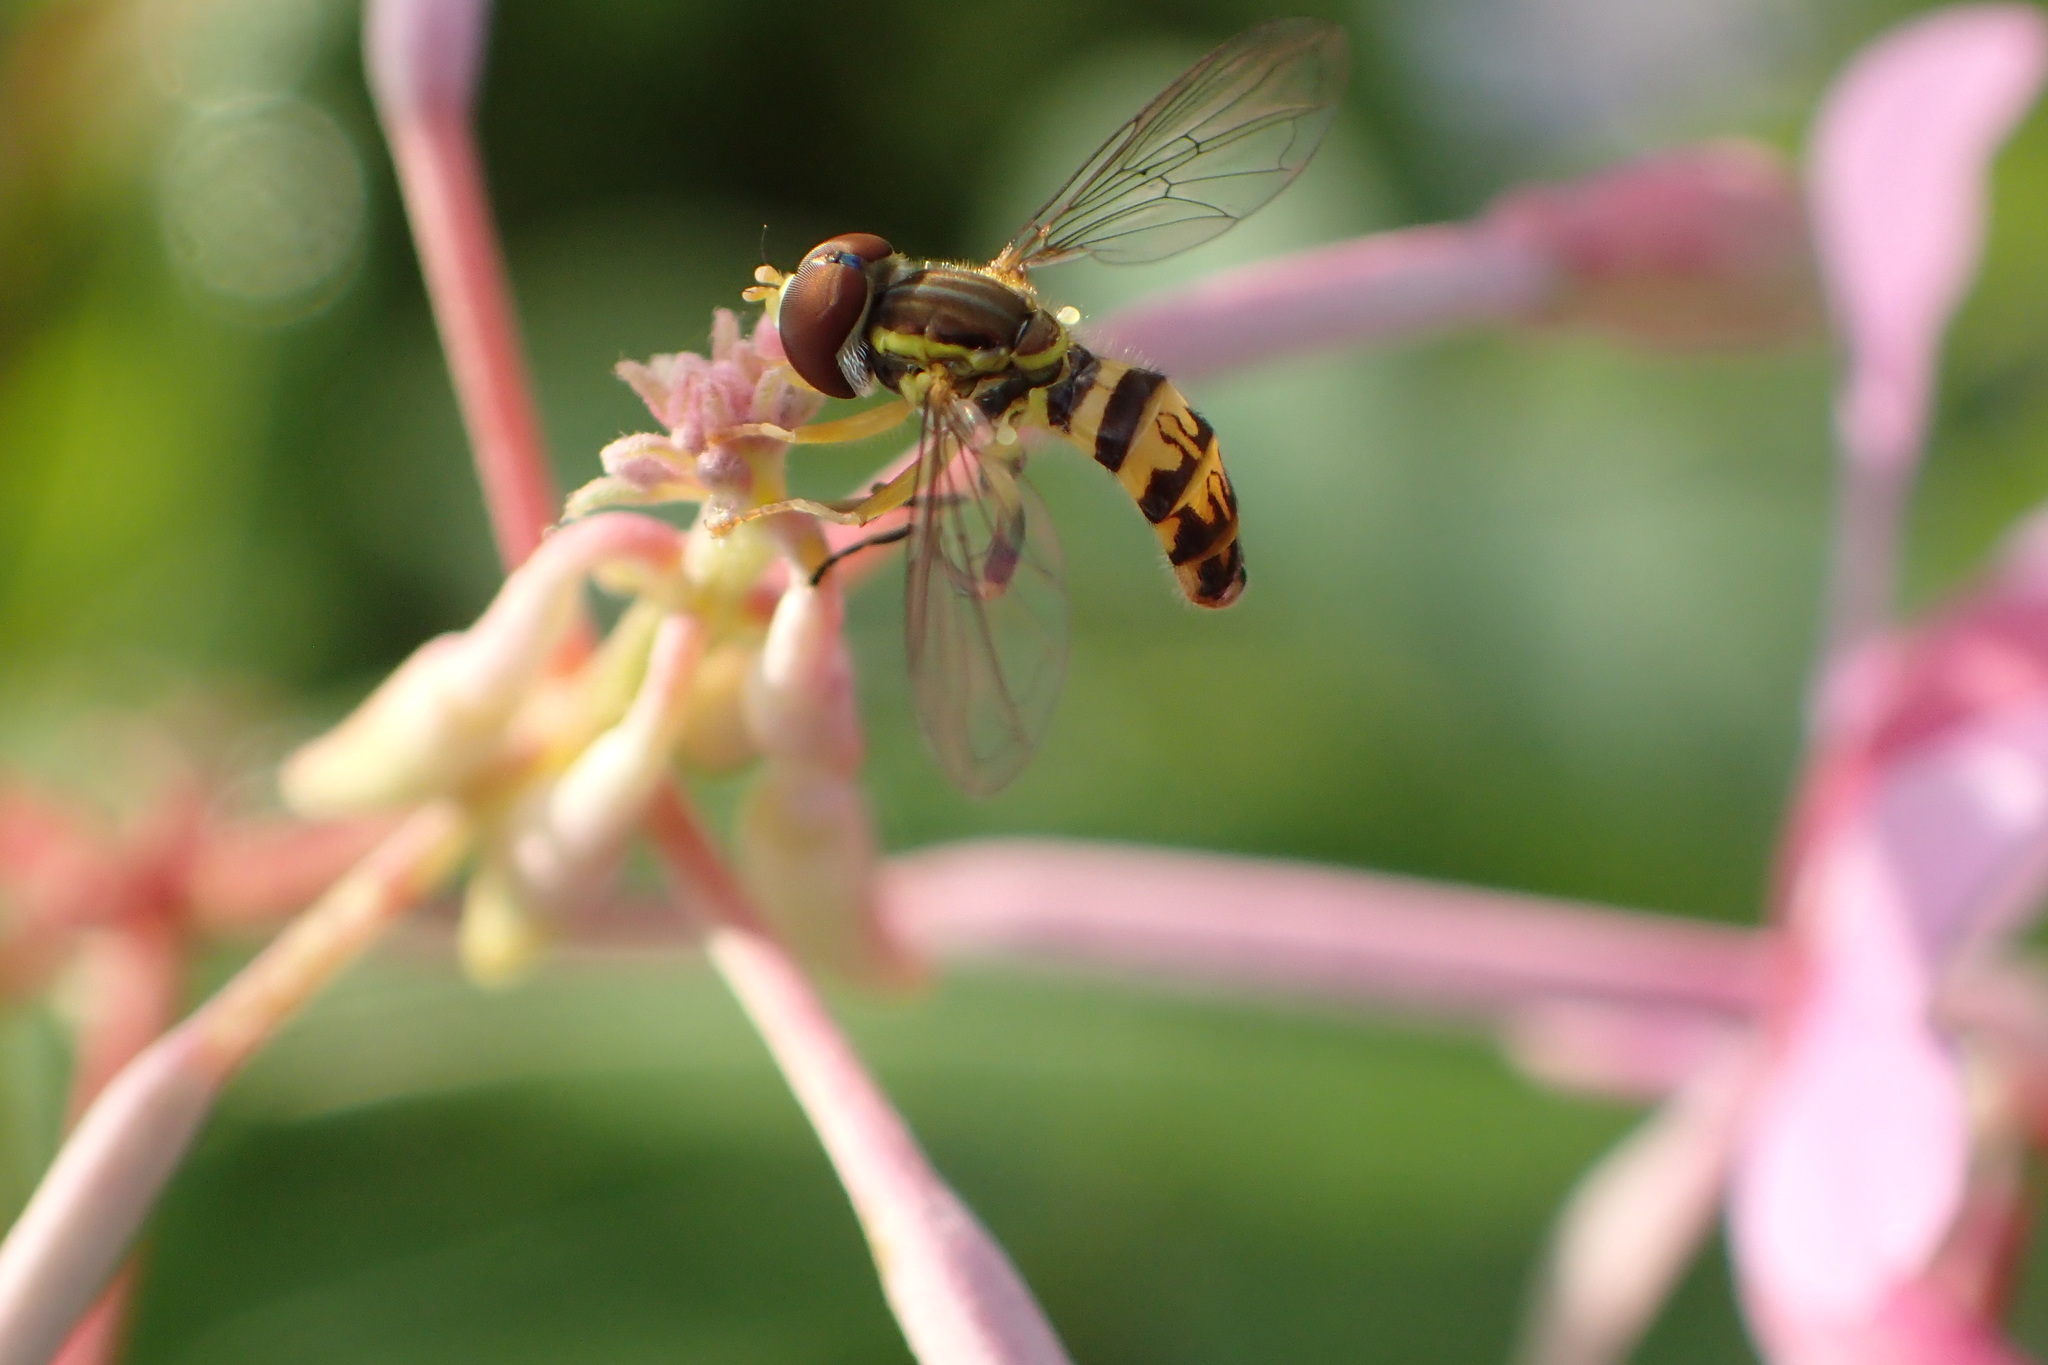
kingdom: Animalia
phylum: Arthropoda
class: Insecta
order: Diptera
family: Syrphidae
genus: Toxomerus
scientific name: Toxomerus geminatus
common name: Eastern calligrapher
